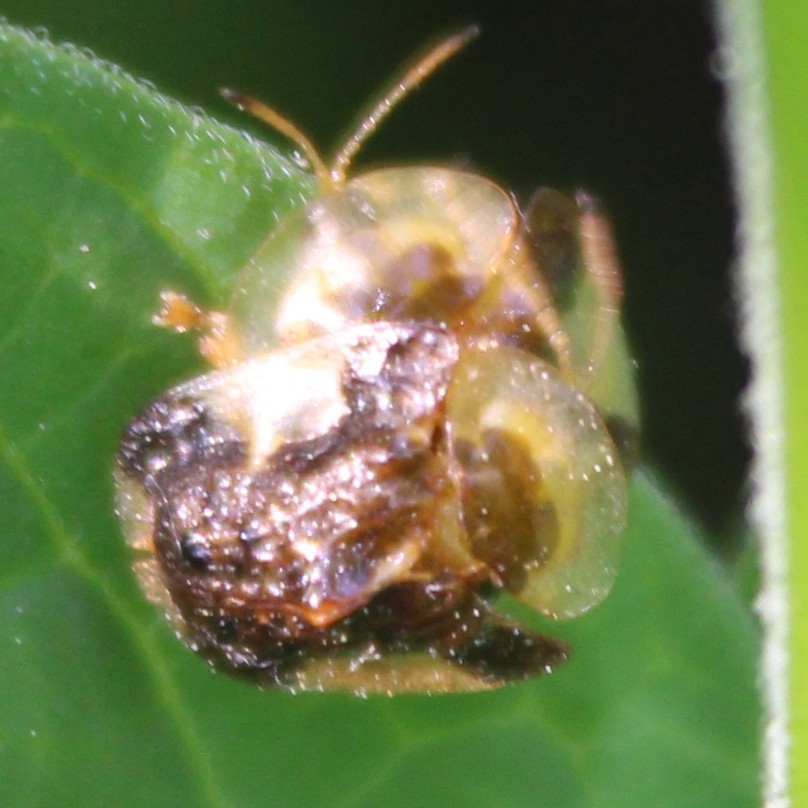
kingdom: Animalia
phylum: Arthropoda
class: Insecta
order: Coleoptera
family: Chrysomelidae
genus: Helocassis
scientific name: Helocassis clavata
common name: Clavate tortoise beetle
